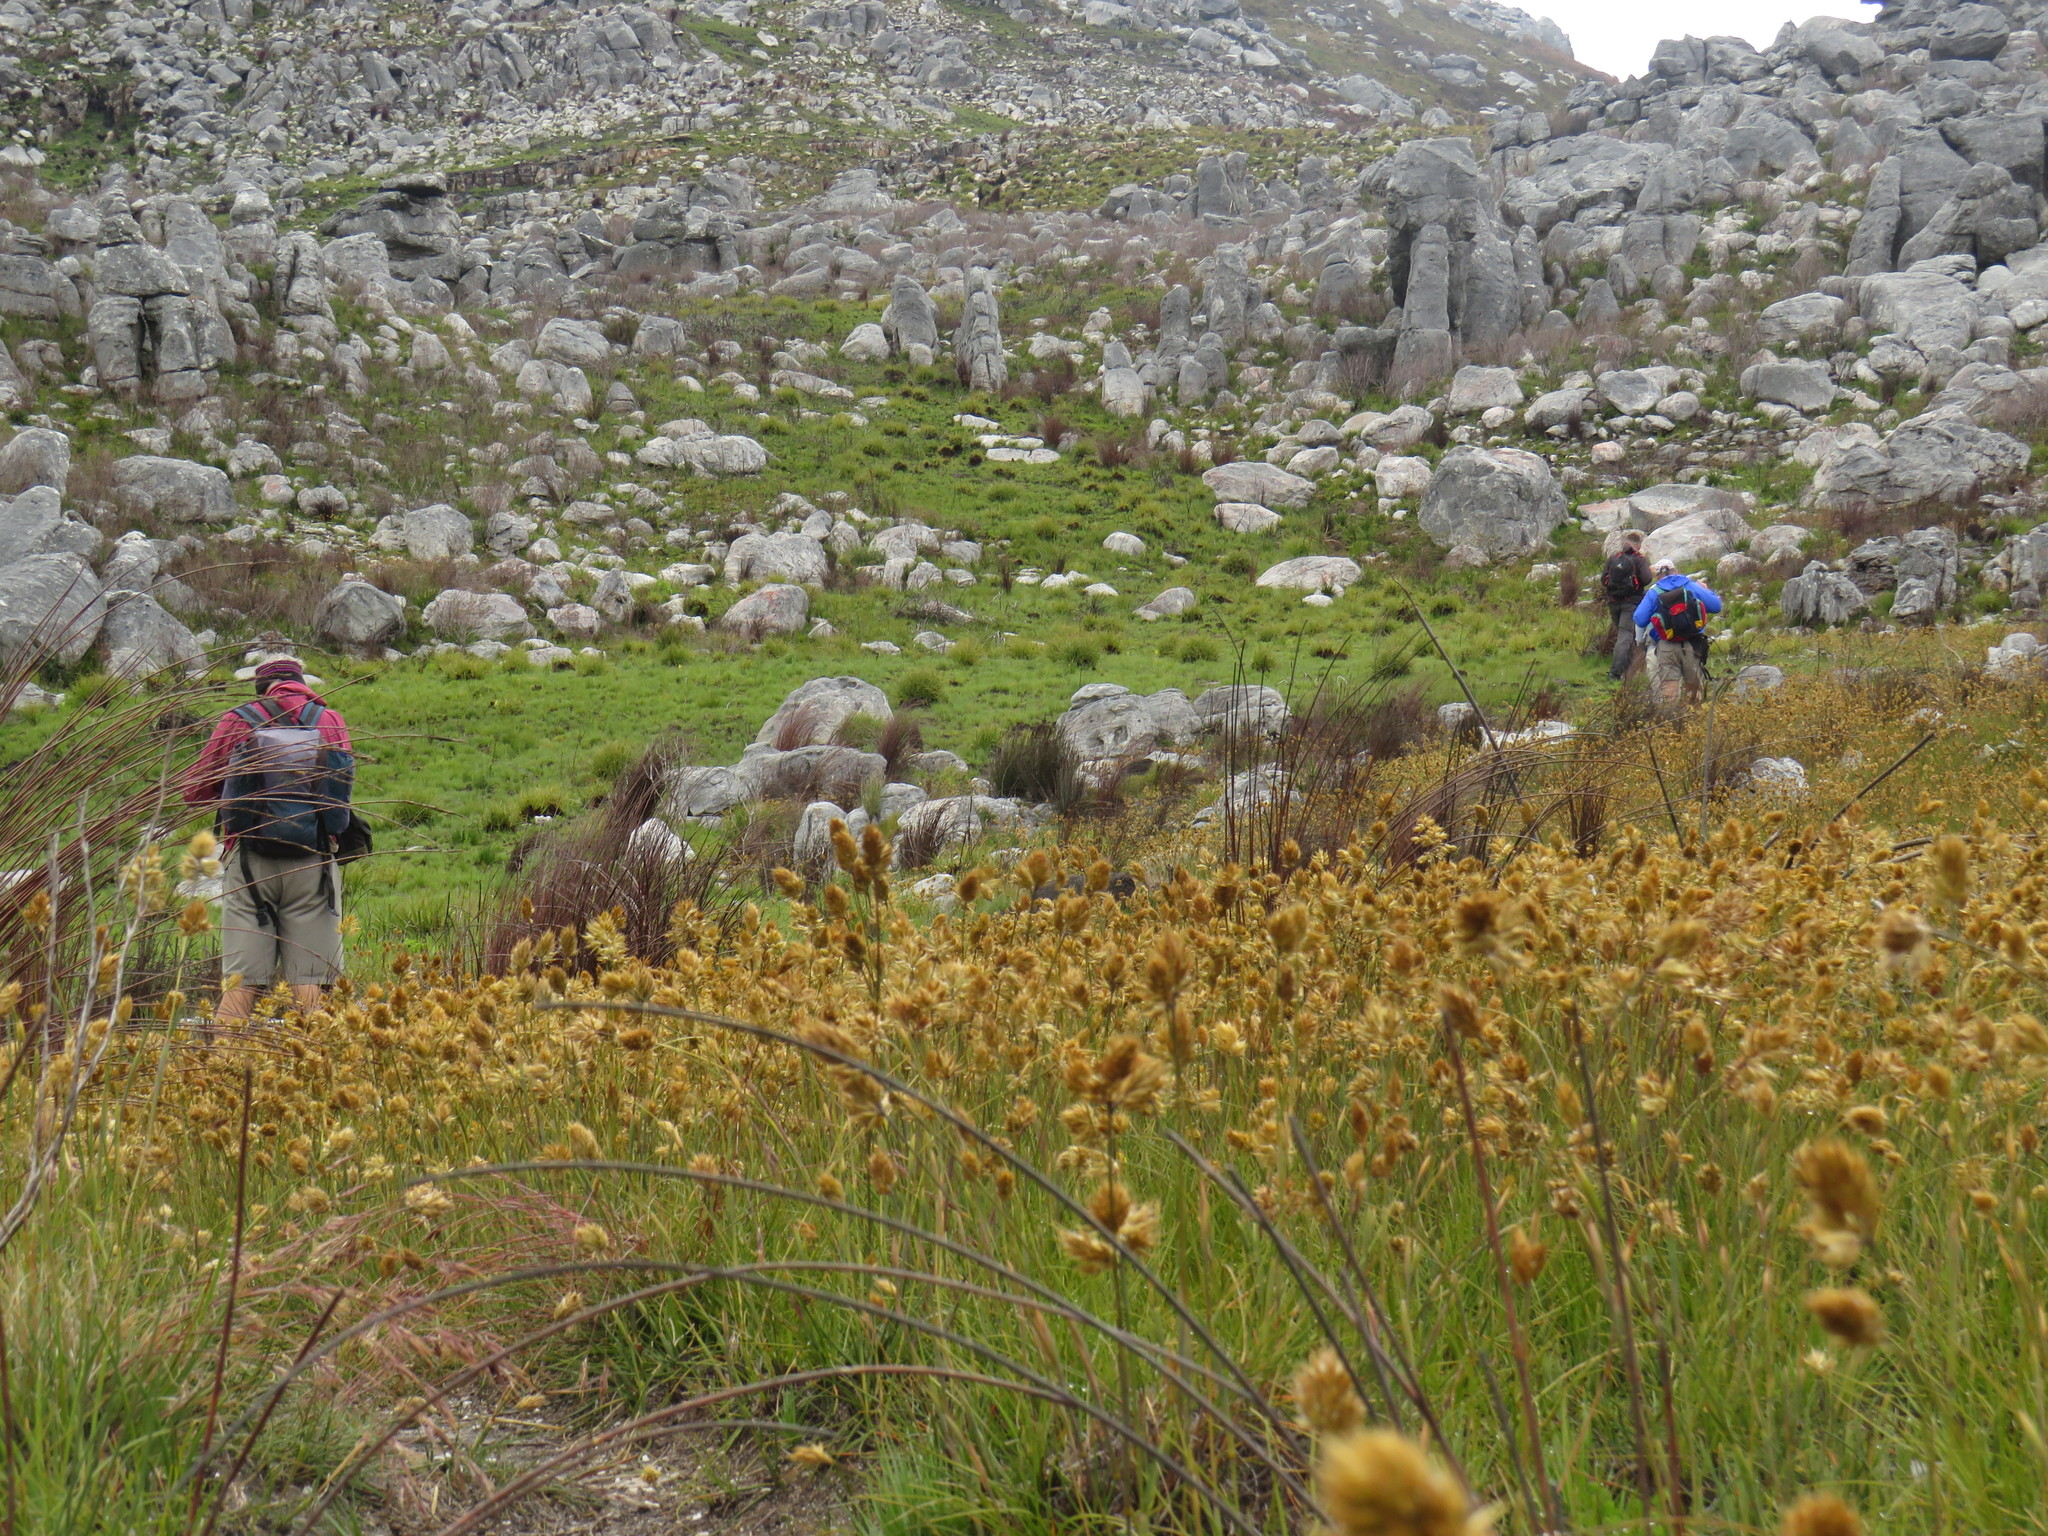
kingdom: Plantae
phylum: Tracheophyta
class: Liliopsida
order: Poales
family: Poaceae
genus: Geochloa
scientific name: Geochloa rufa
